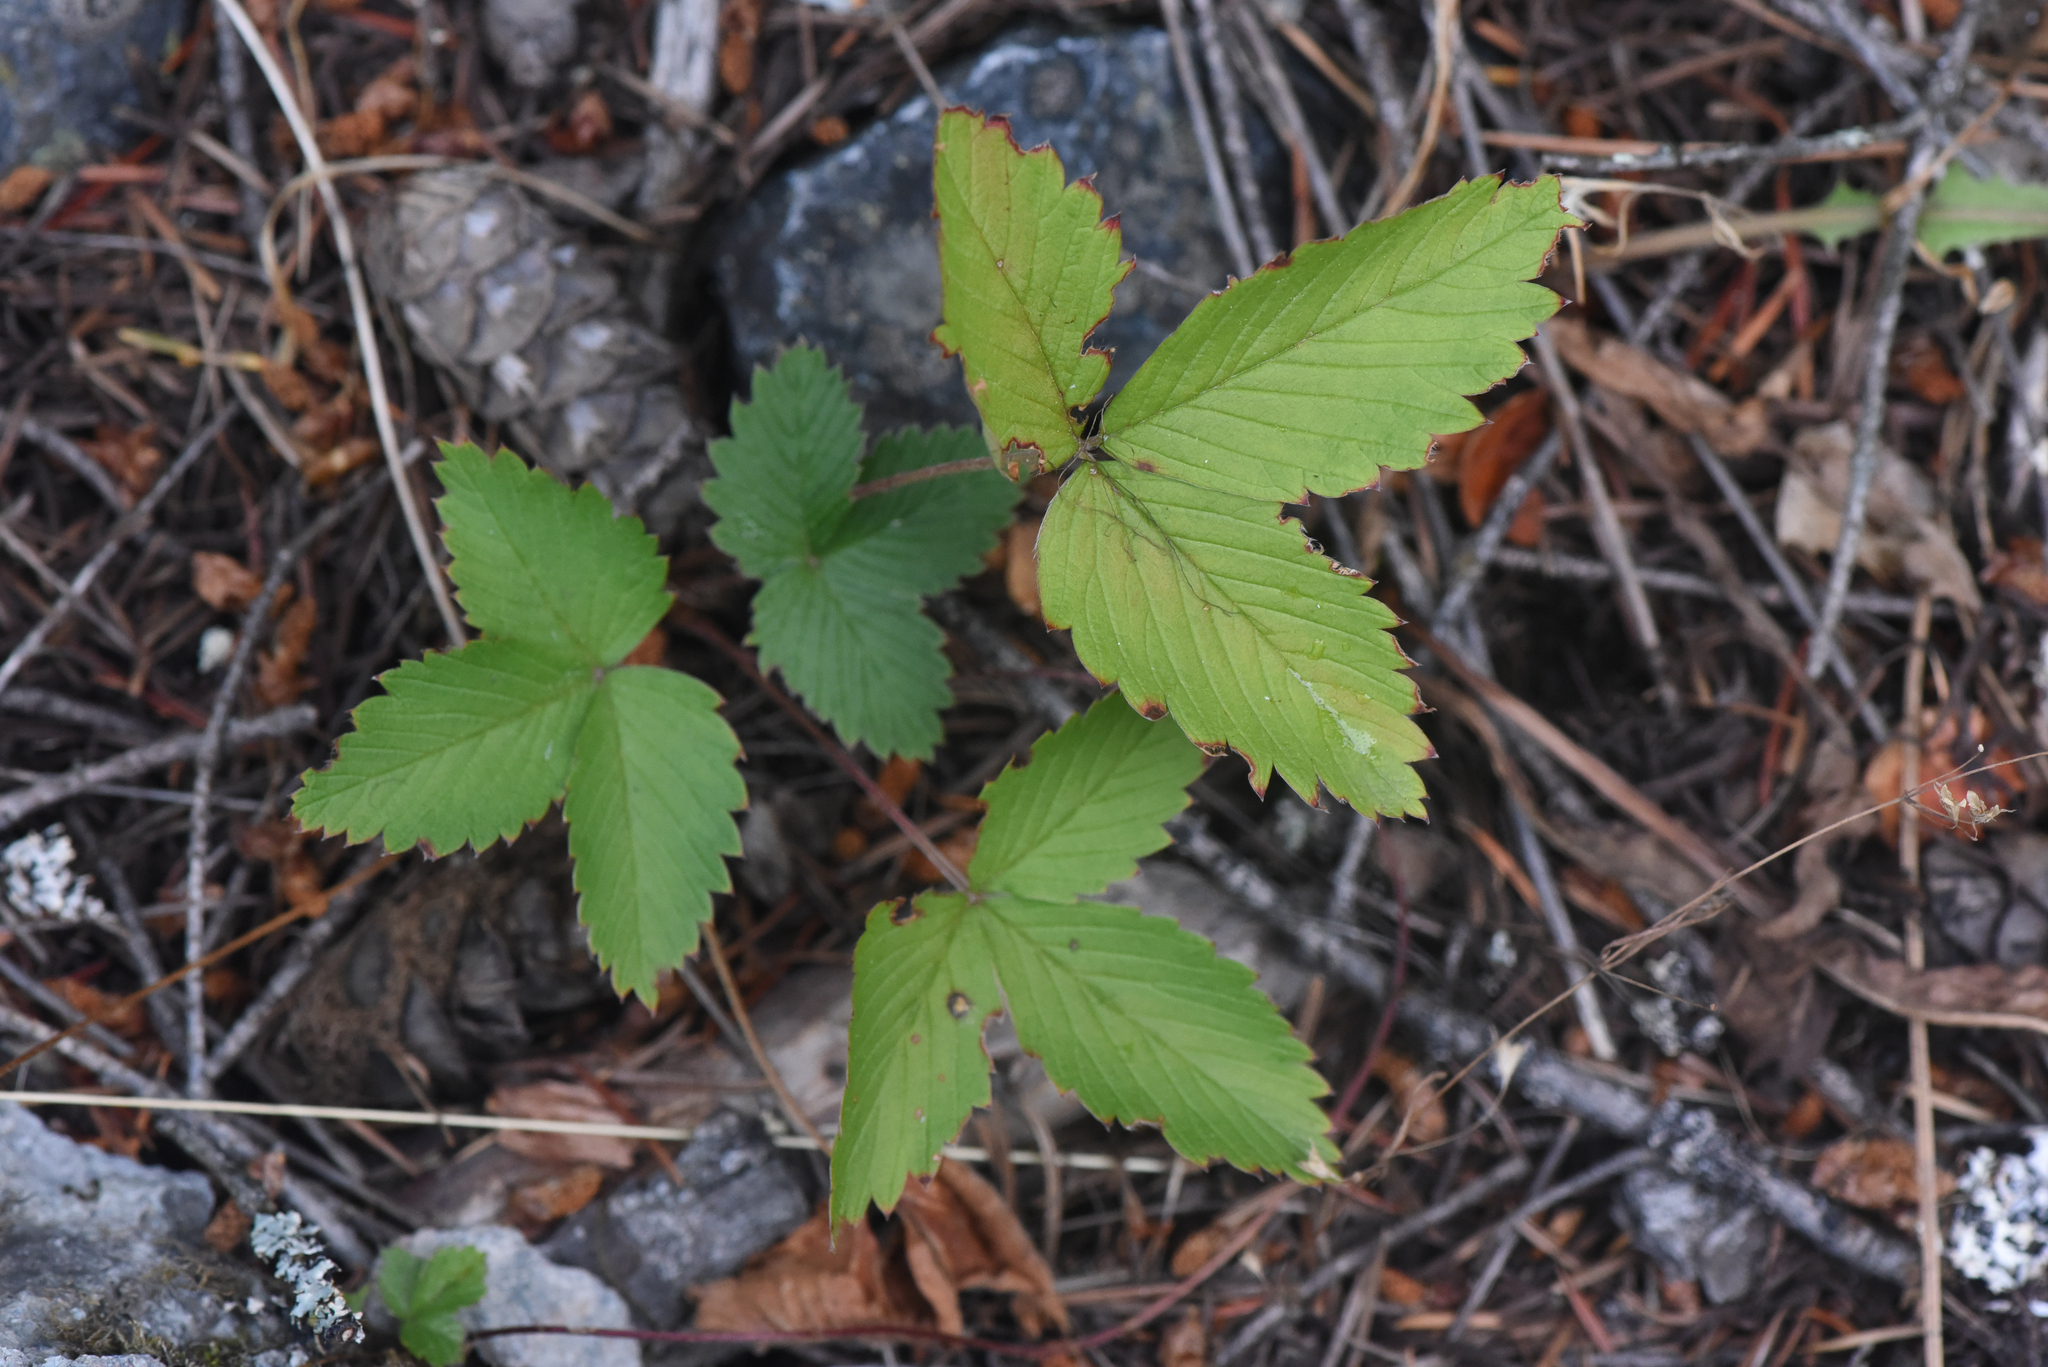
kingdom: Plantae
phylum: Tracheophyta
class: Magnoliopsida
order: Rosales
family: Rosaceae
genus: Fragaria
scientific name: Fragaria vesca
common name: Wild strawberry
